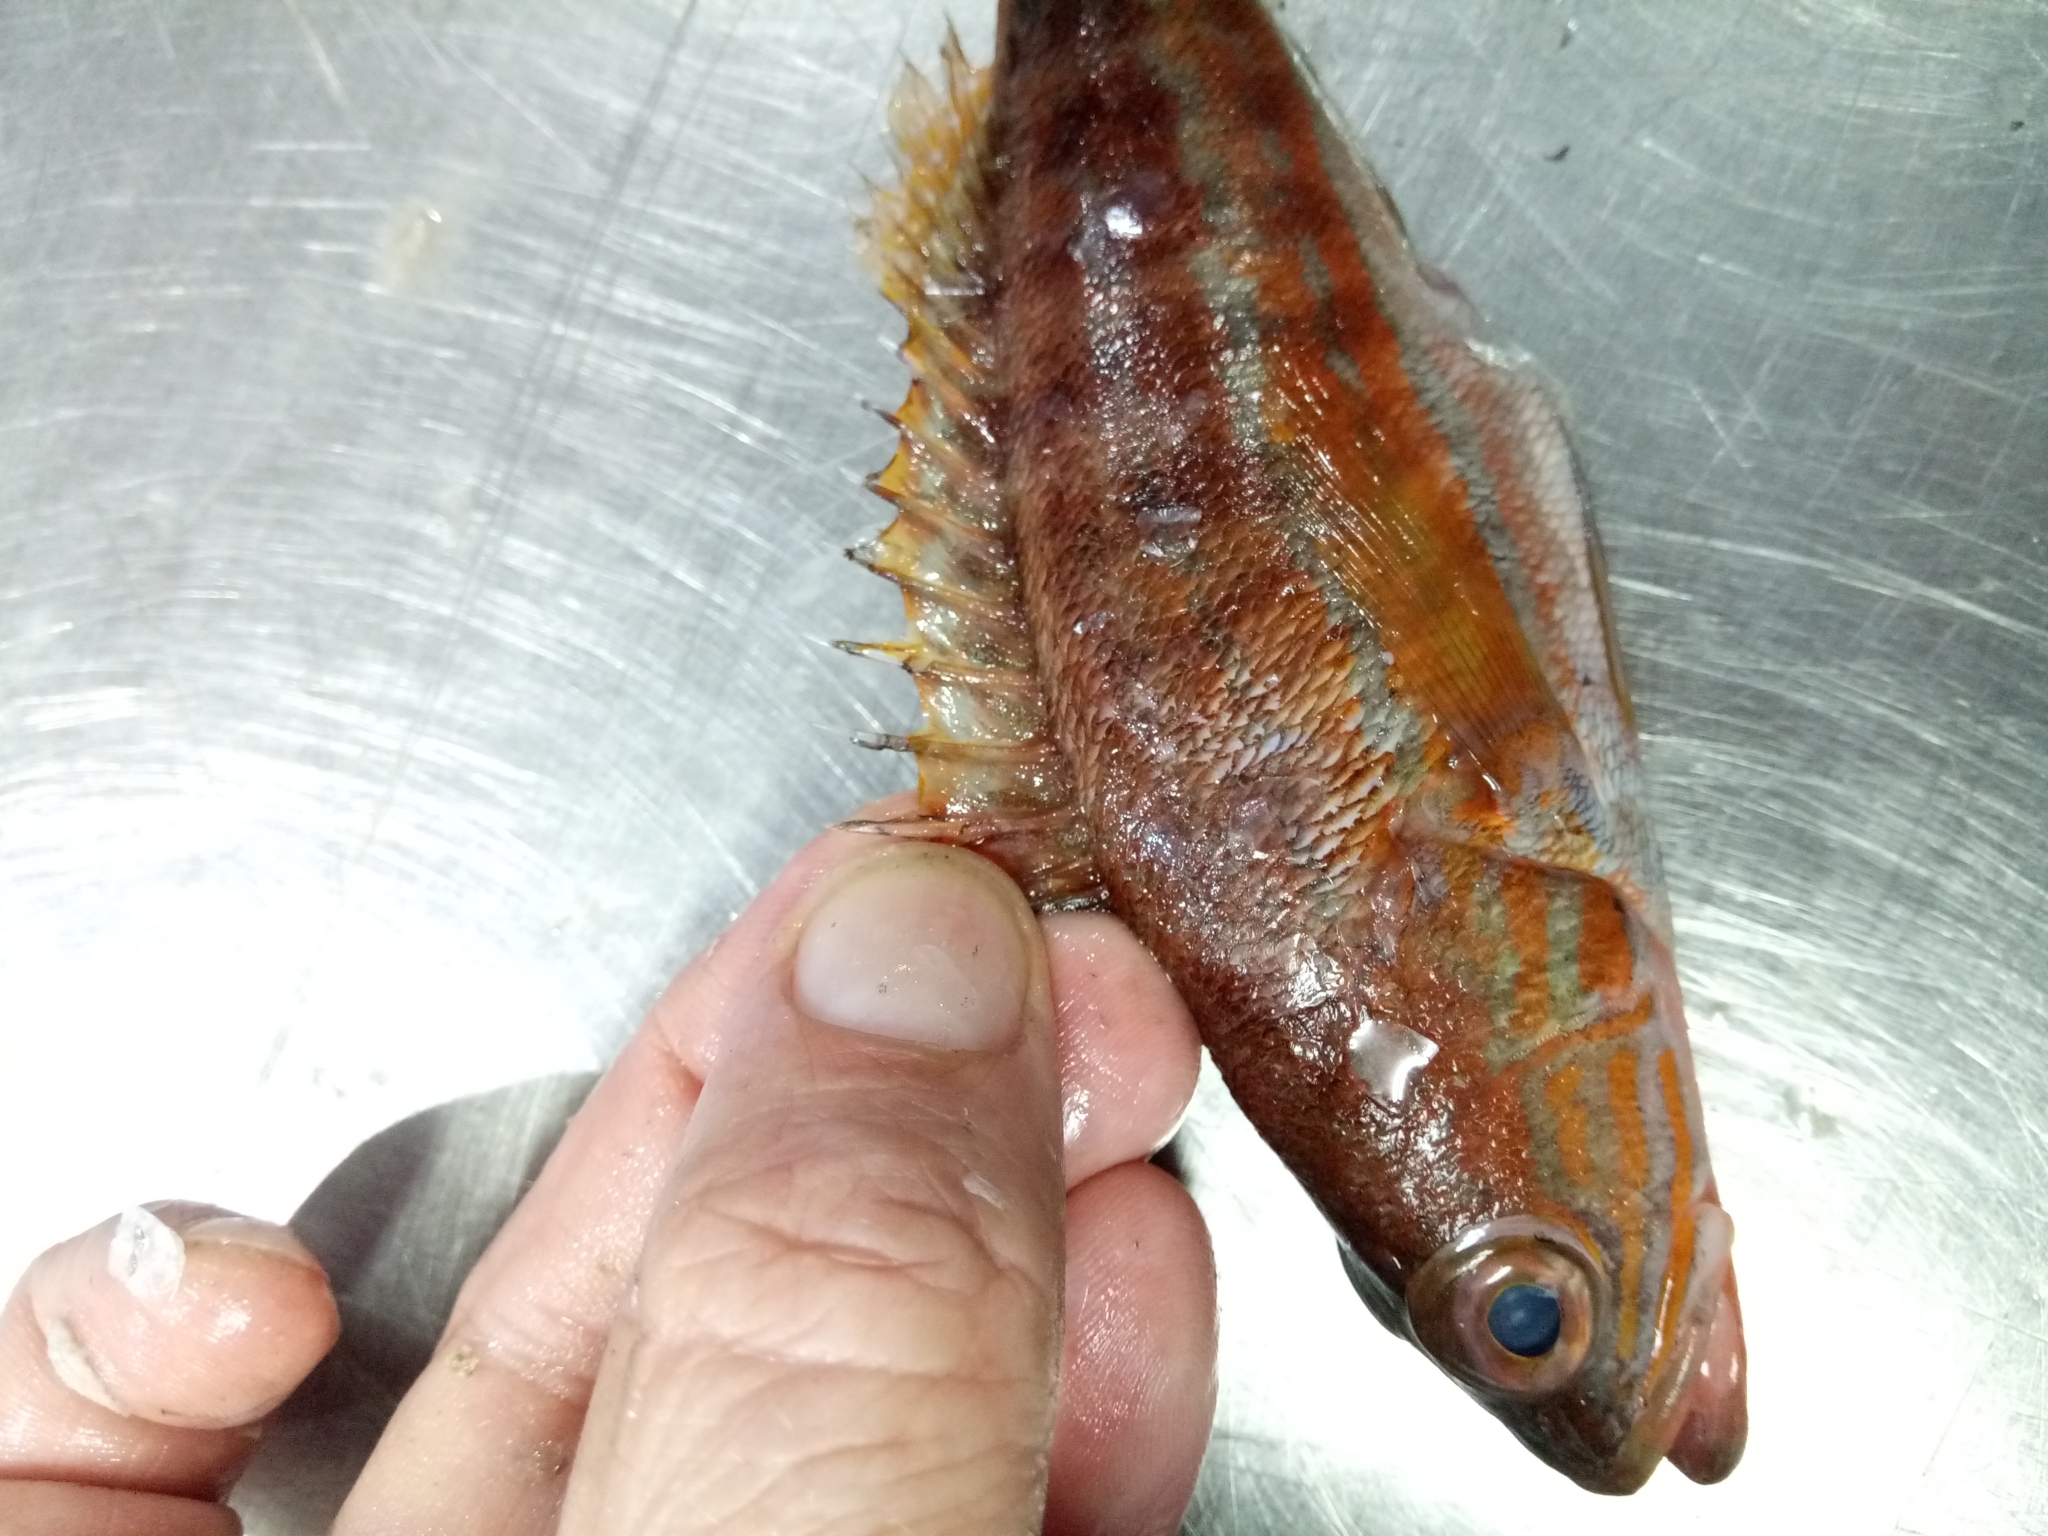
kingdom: Animalia
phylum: Chordata
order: Perciformes
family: Serranidae
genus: Serranus
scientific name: Serranus cabrilla
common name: Comber
